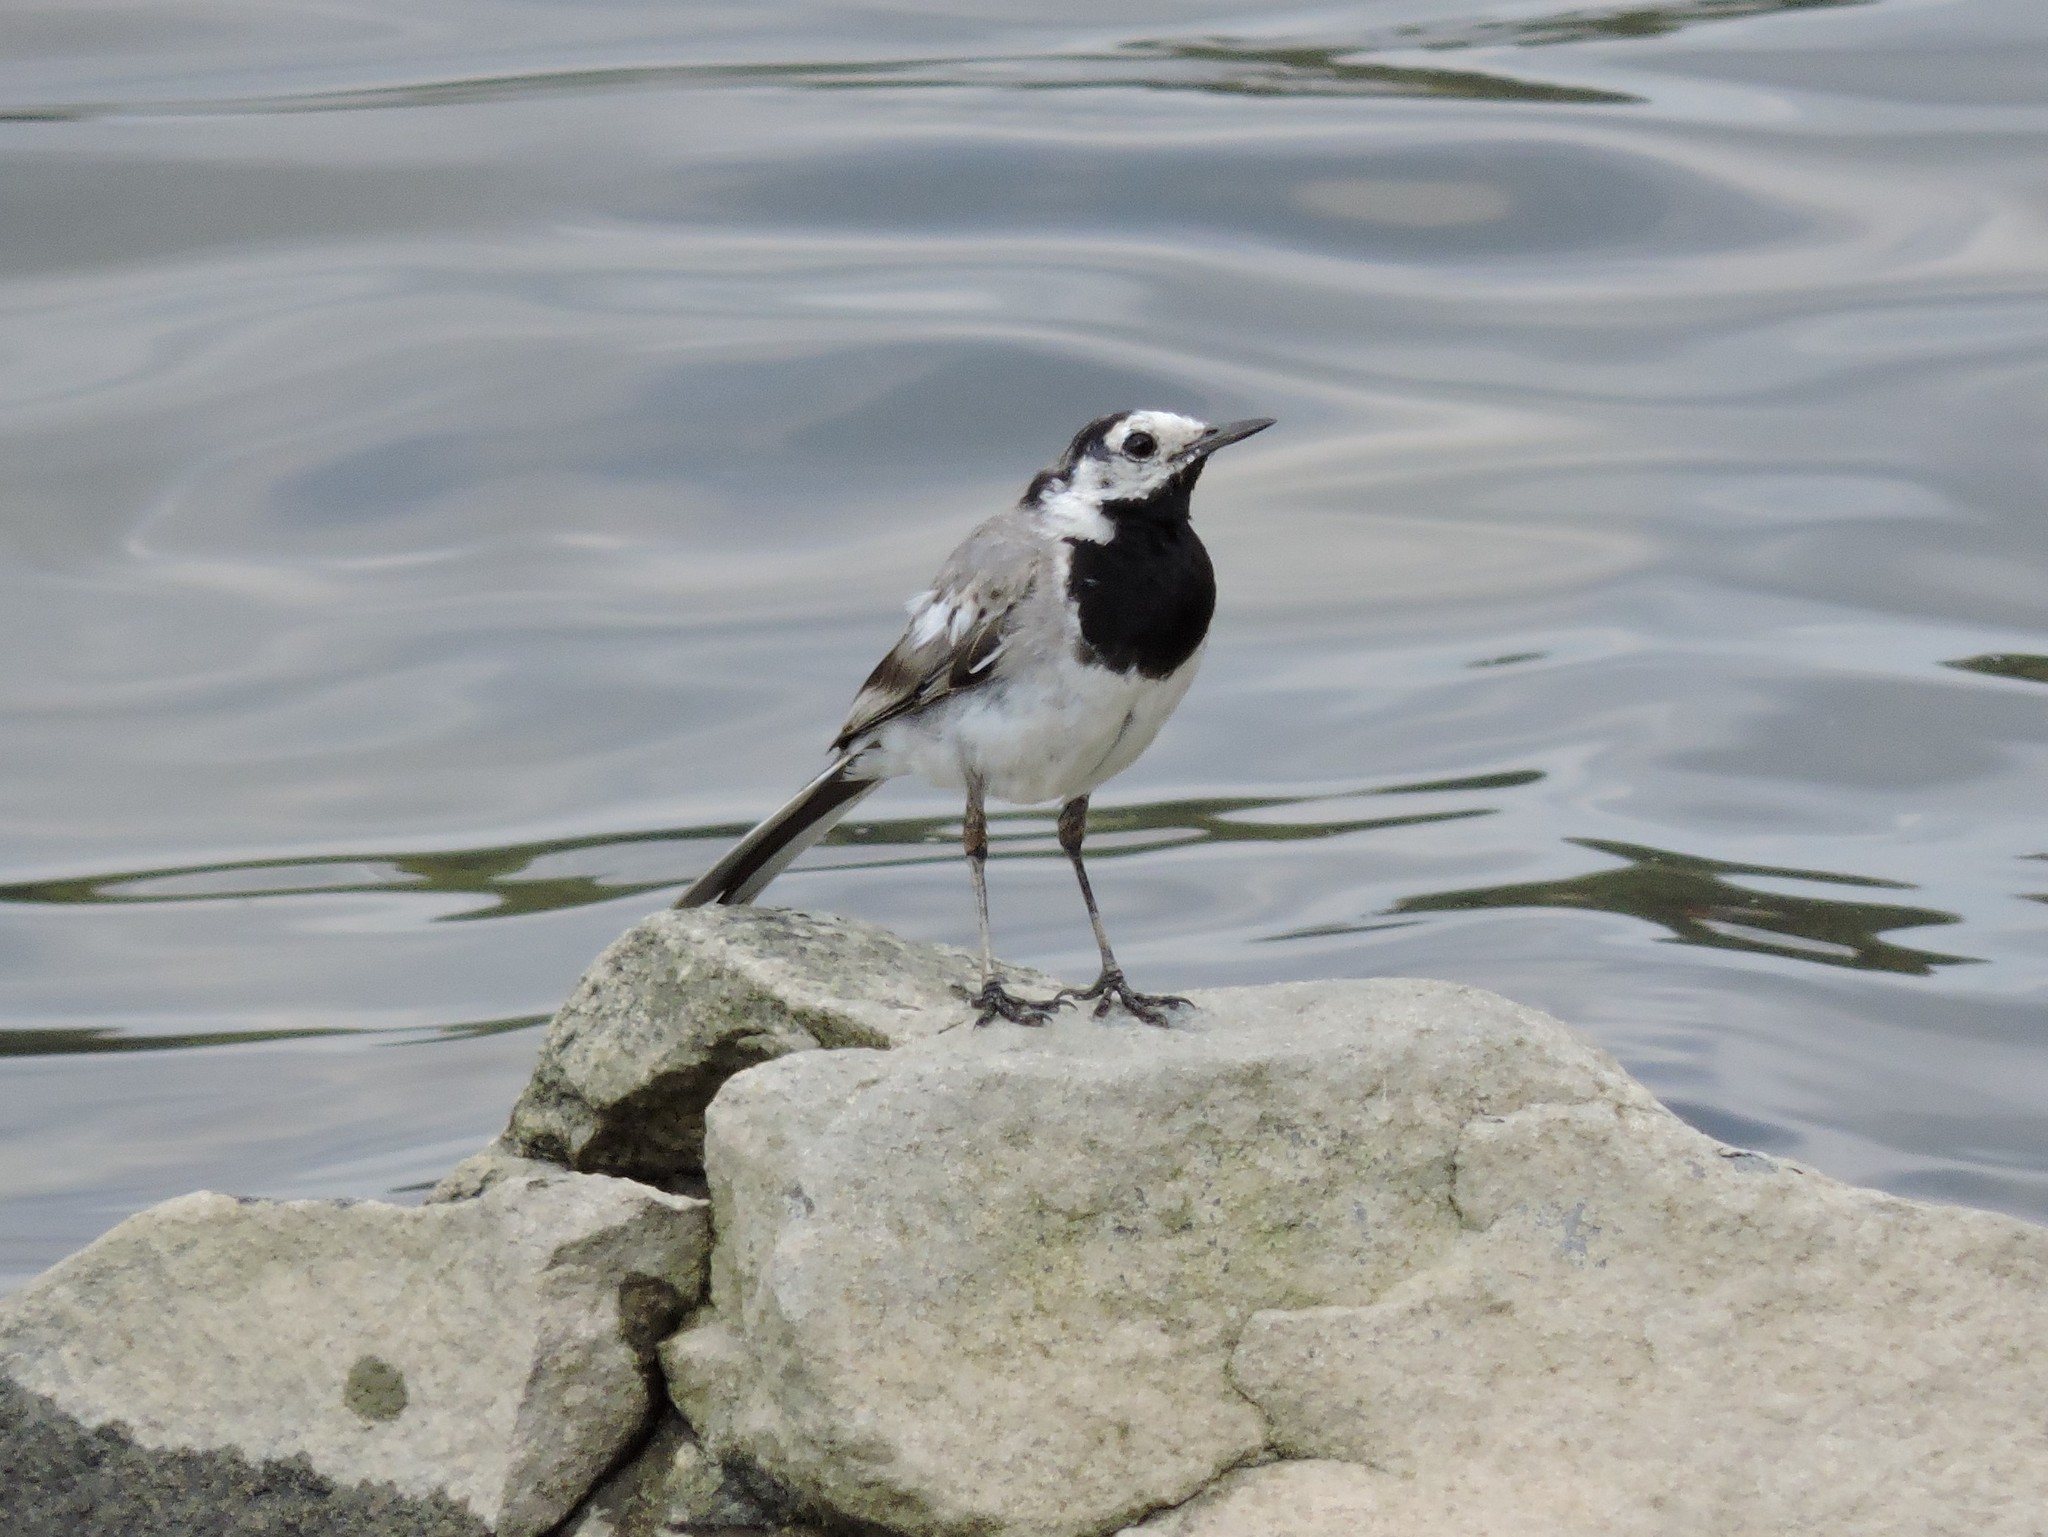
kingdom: Animalia
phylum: Chordata
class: Aves
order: Passeriformes
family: Motacillidae
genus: Motacilla
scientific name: Motacilla alba
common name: White wagtail
